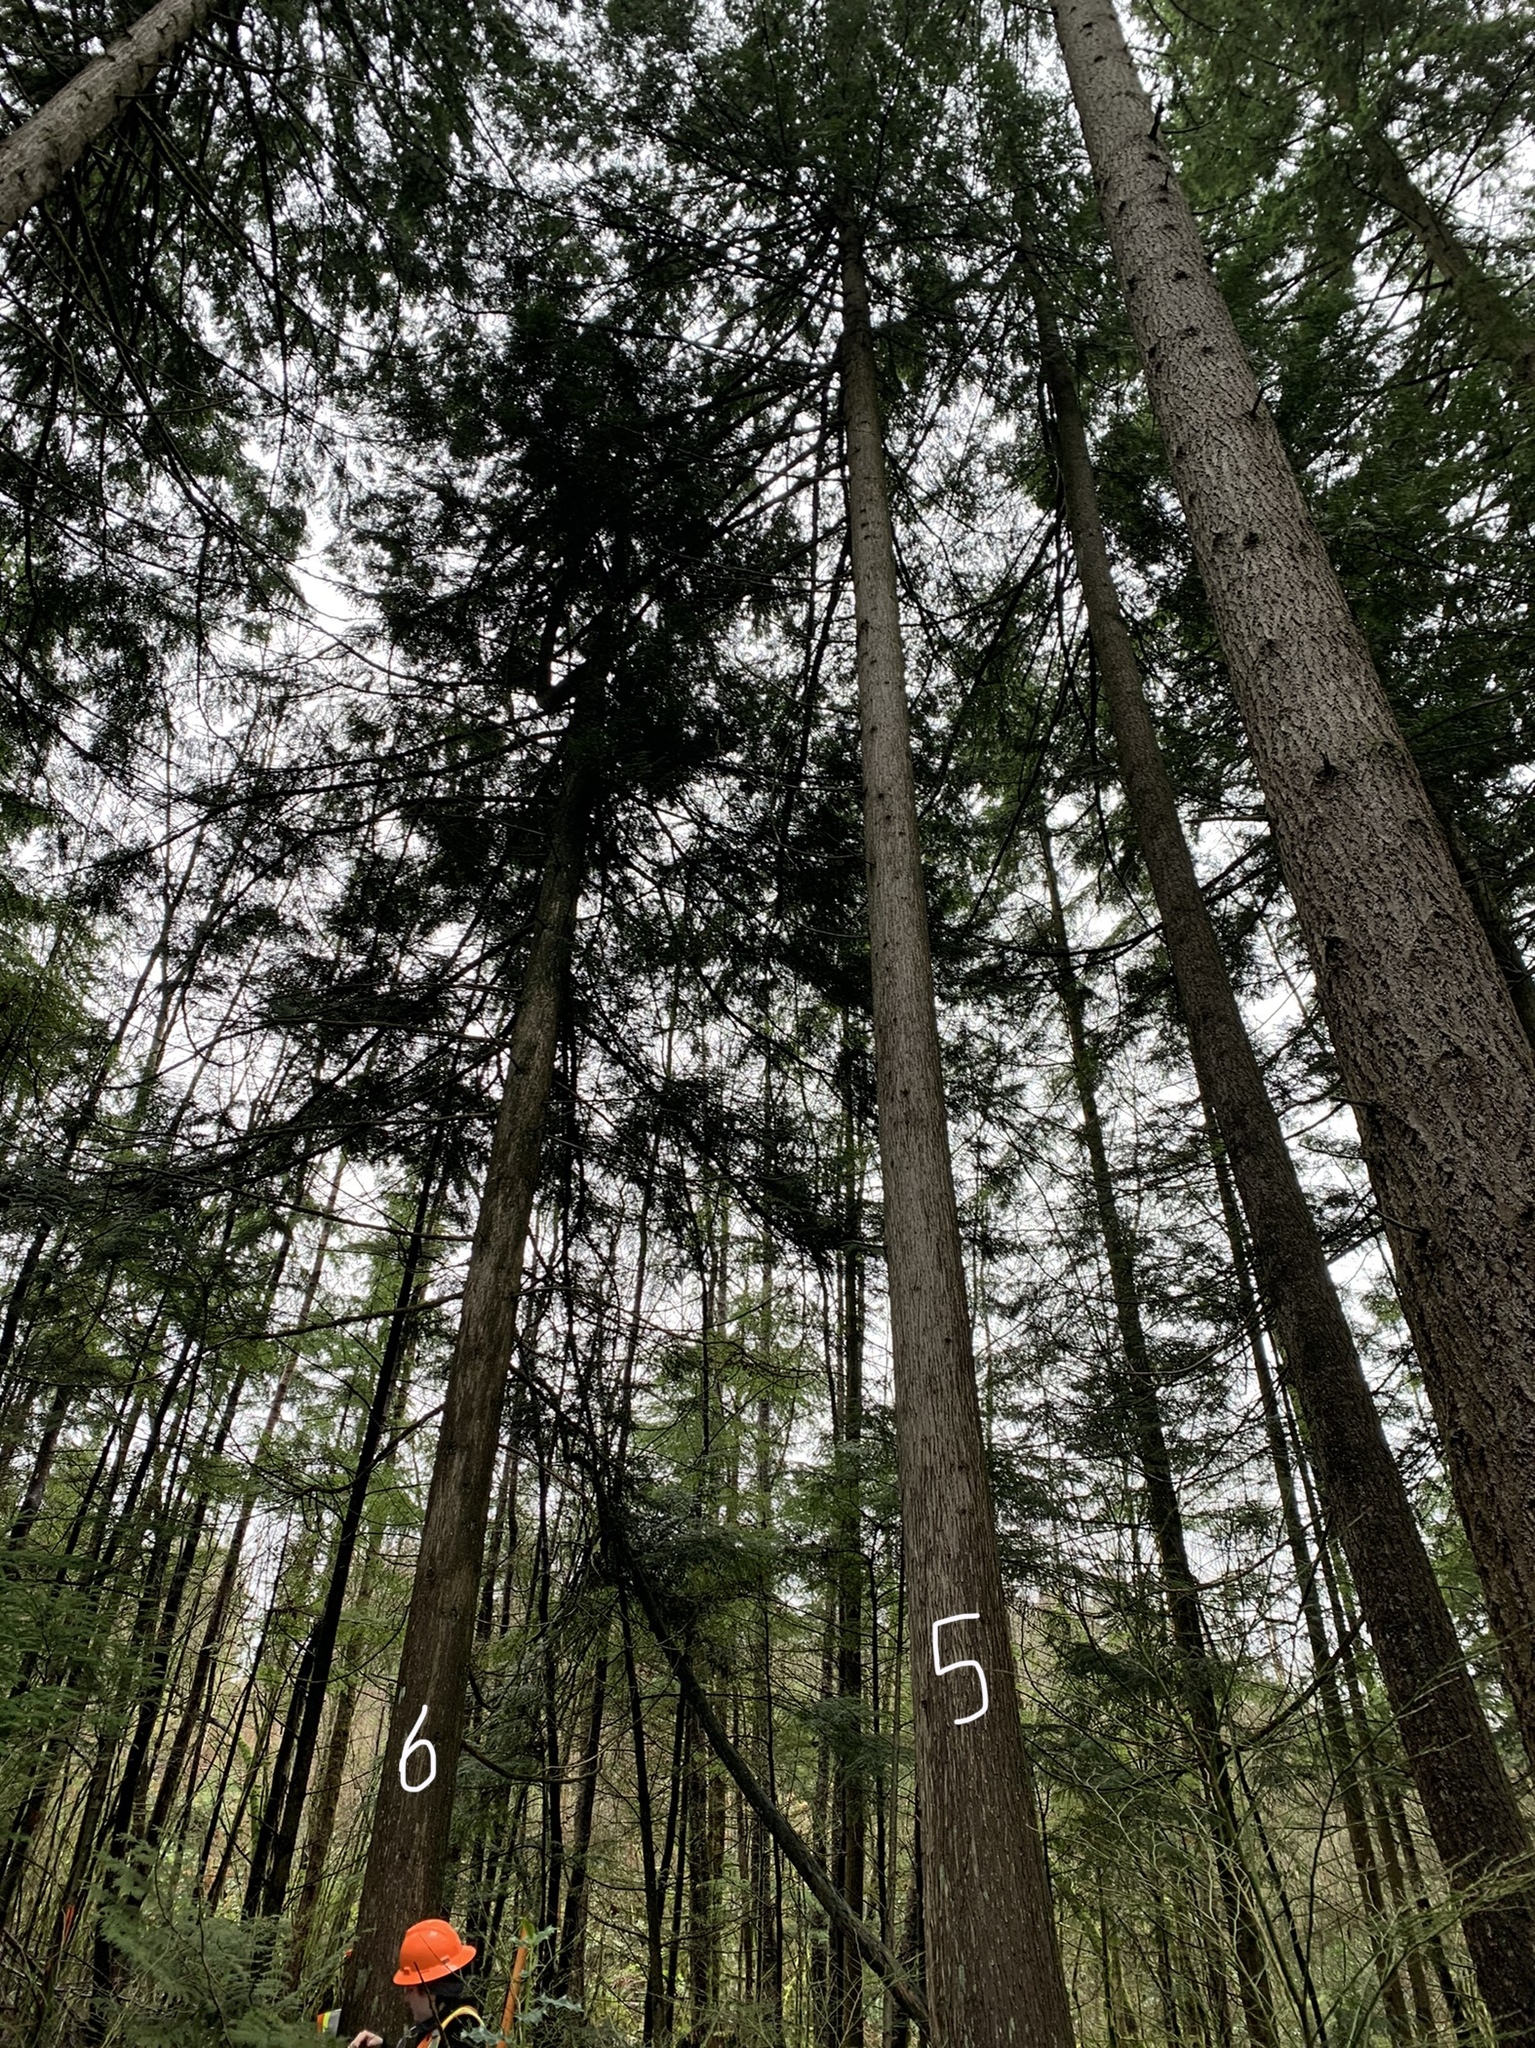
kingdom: Plantae
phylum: Tracheophyta
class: Pinopsida
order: Pinales
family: Cupressaceae
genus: Thuja
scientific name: Thuja plicata
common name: Western red-cedar
